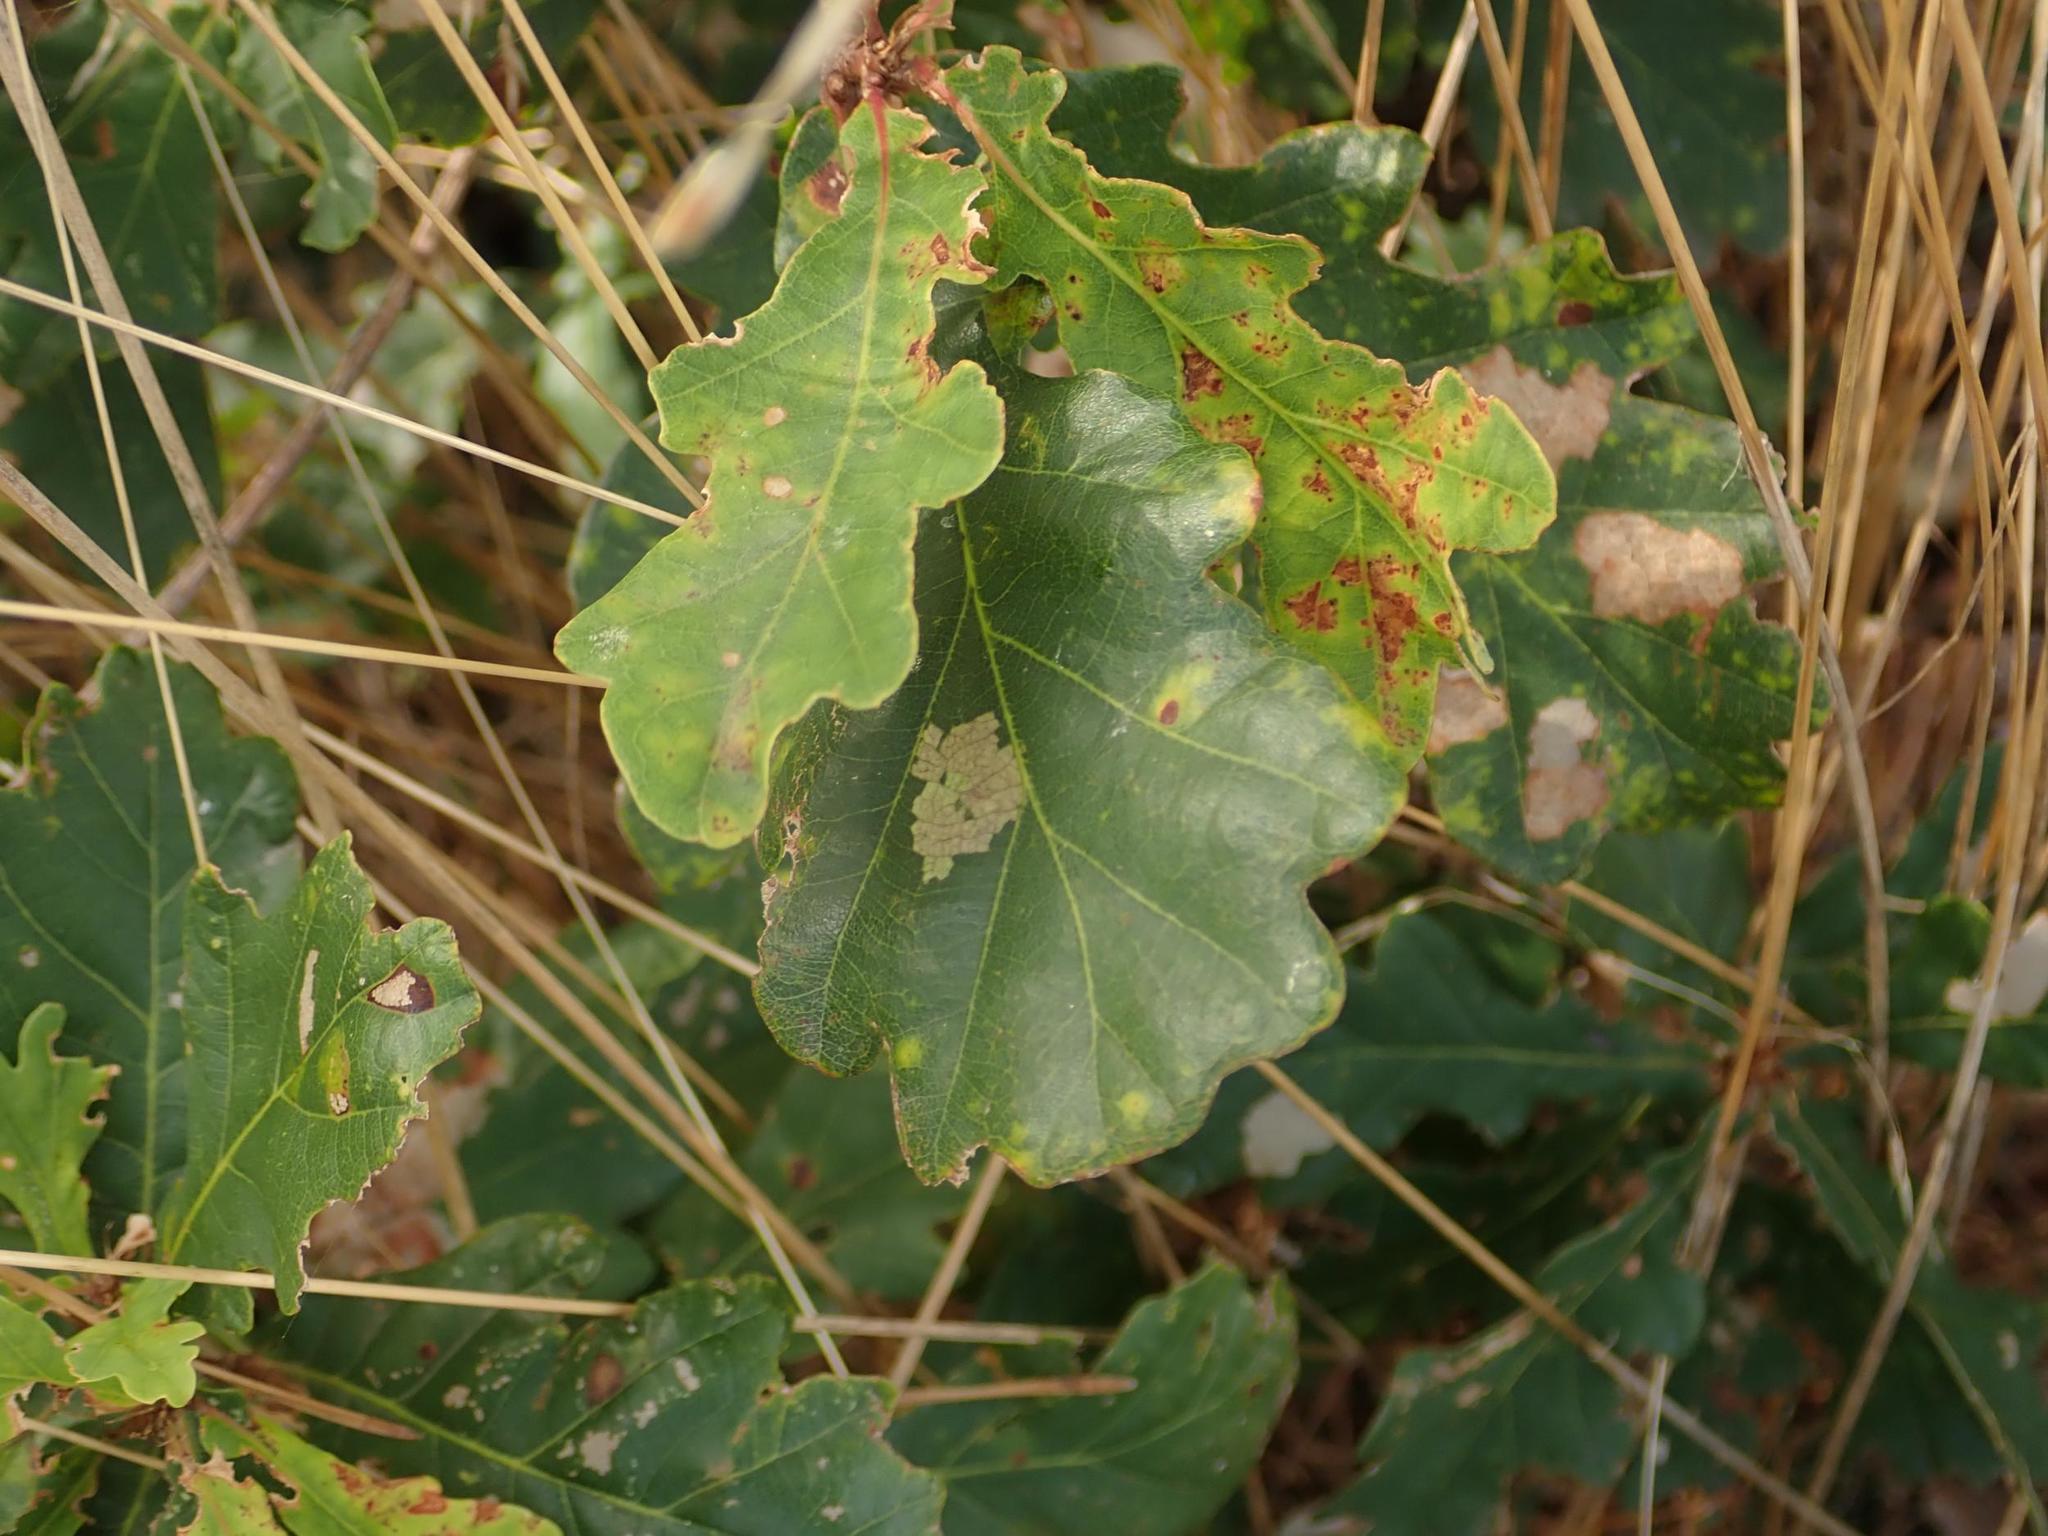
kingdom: Plantae
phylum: Tracheophyta
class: Magnoliopsida
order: Fagales
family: Fagaceae
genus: Quercus
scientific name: Quercus robur
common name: Pedunculate oak
